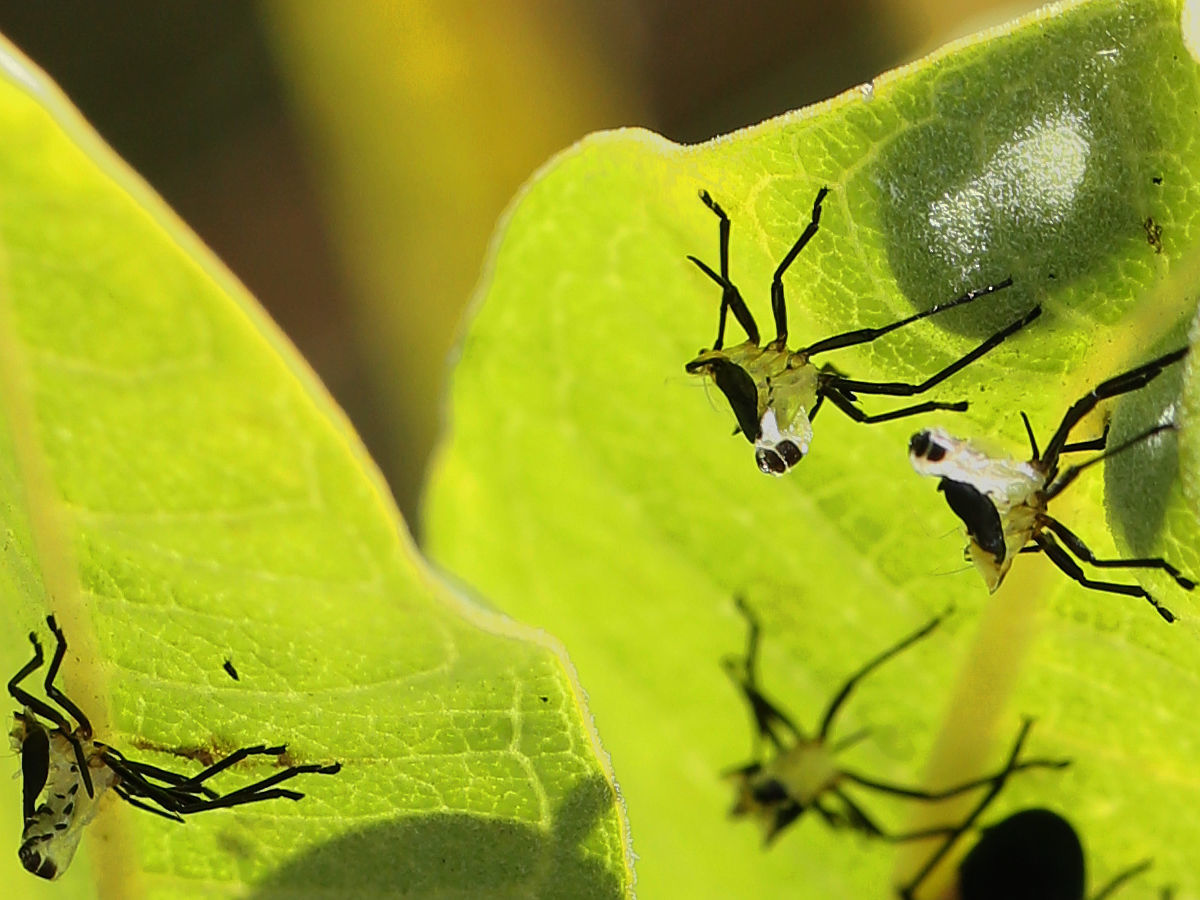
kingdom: Animalia
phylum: Arthropoda
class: Insecta
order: Hemiptera
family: Lygaeidae
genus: Oncopeltus
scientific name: Oncopeltus fasciatus
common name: Large milkweed bug
